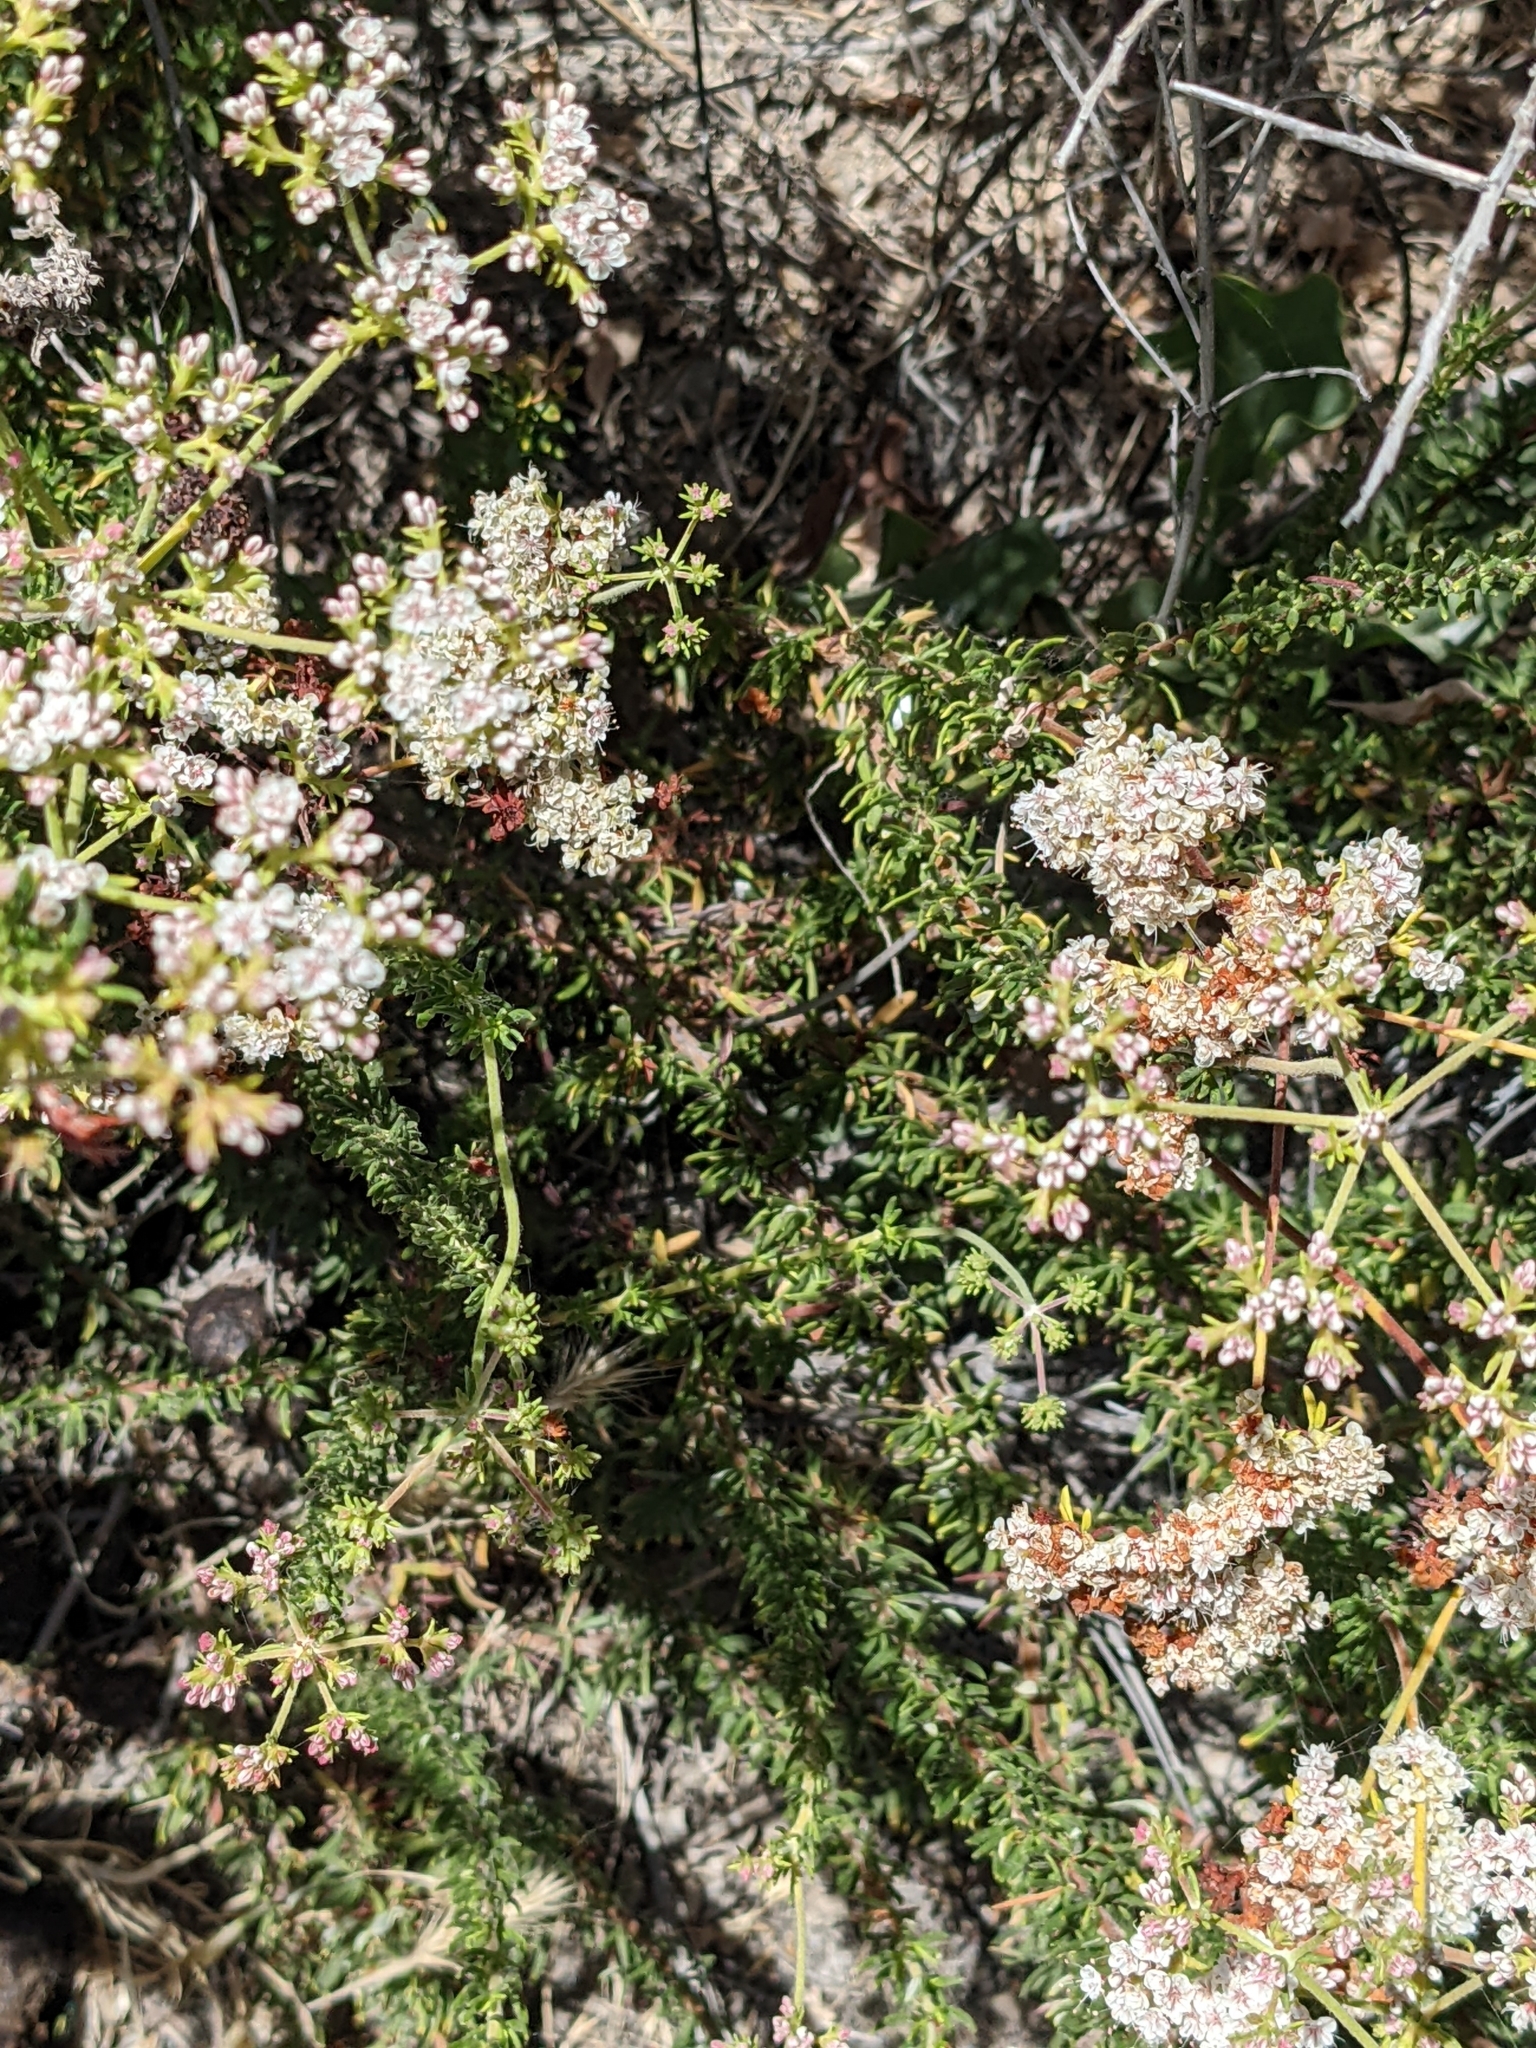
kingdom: Plantae
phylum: Tracheophyta
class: Magnoliopsida
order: Caryophyllales
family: Polygonaceae
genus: Eriogonum
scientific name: Eriogonum fasciculatum
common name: California wild buckwheat
